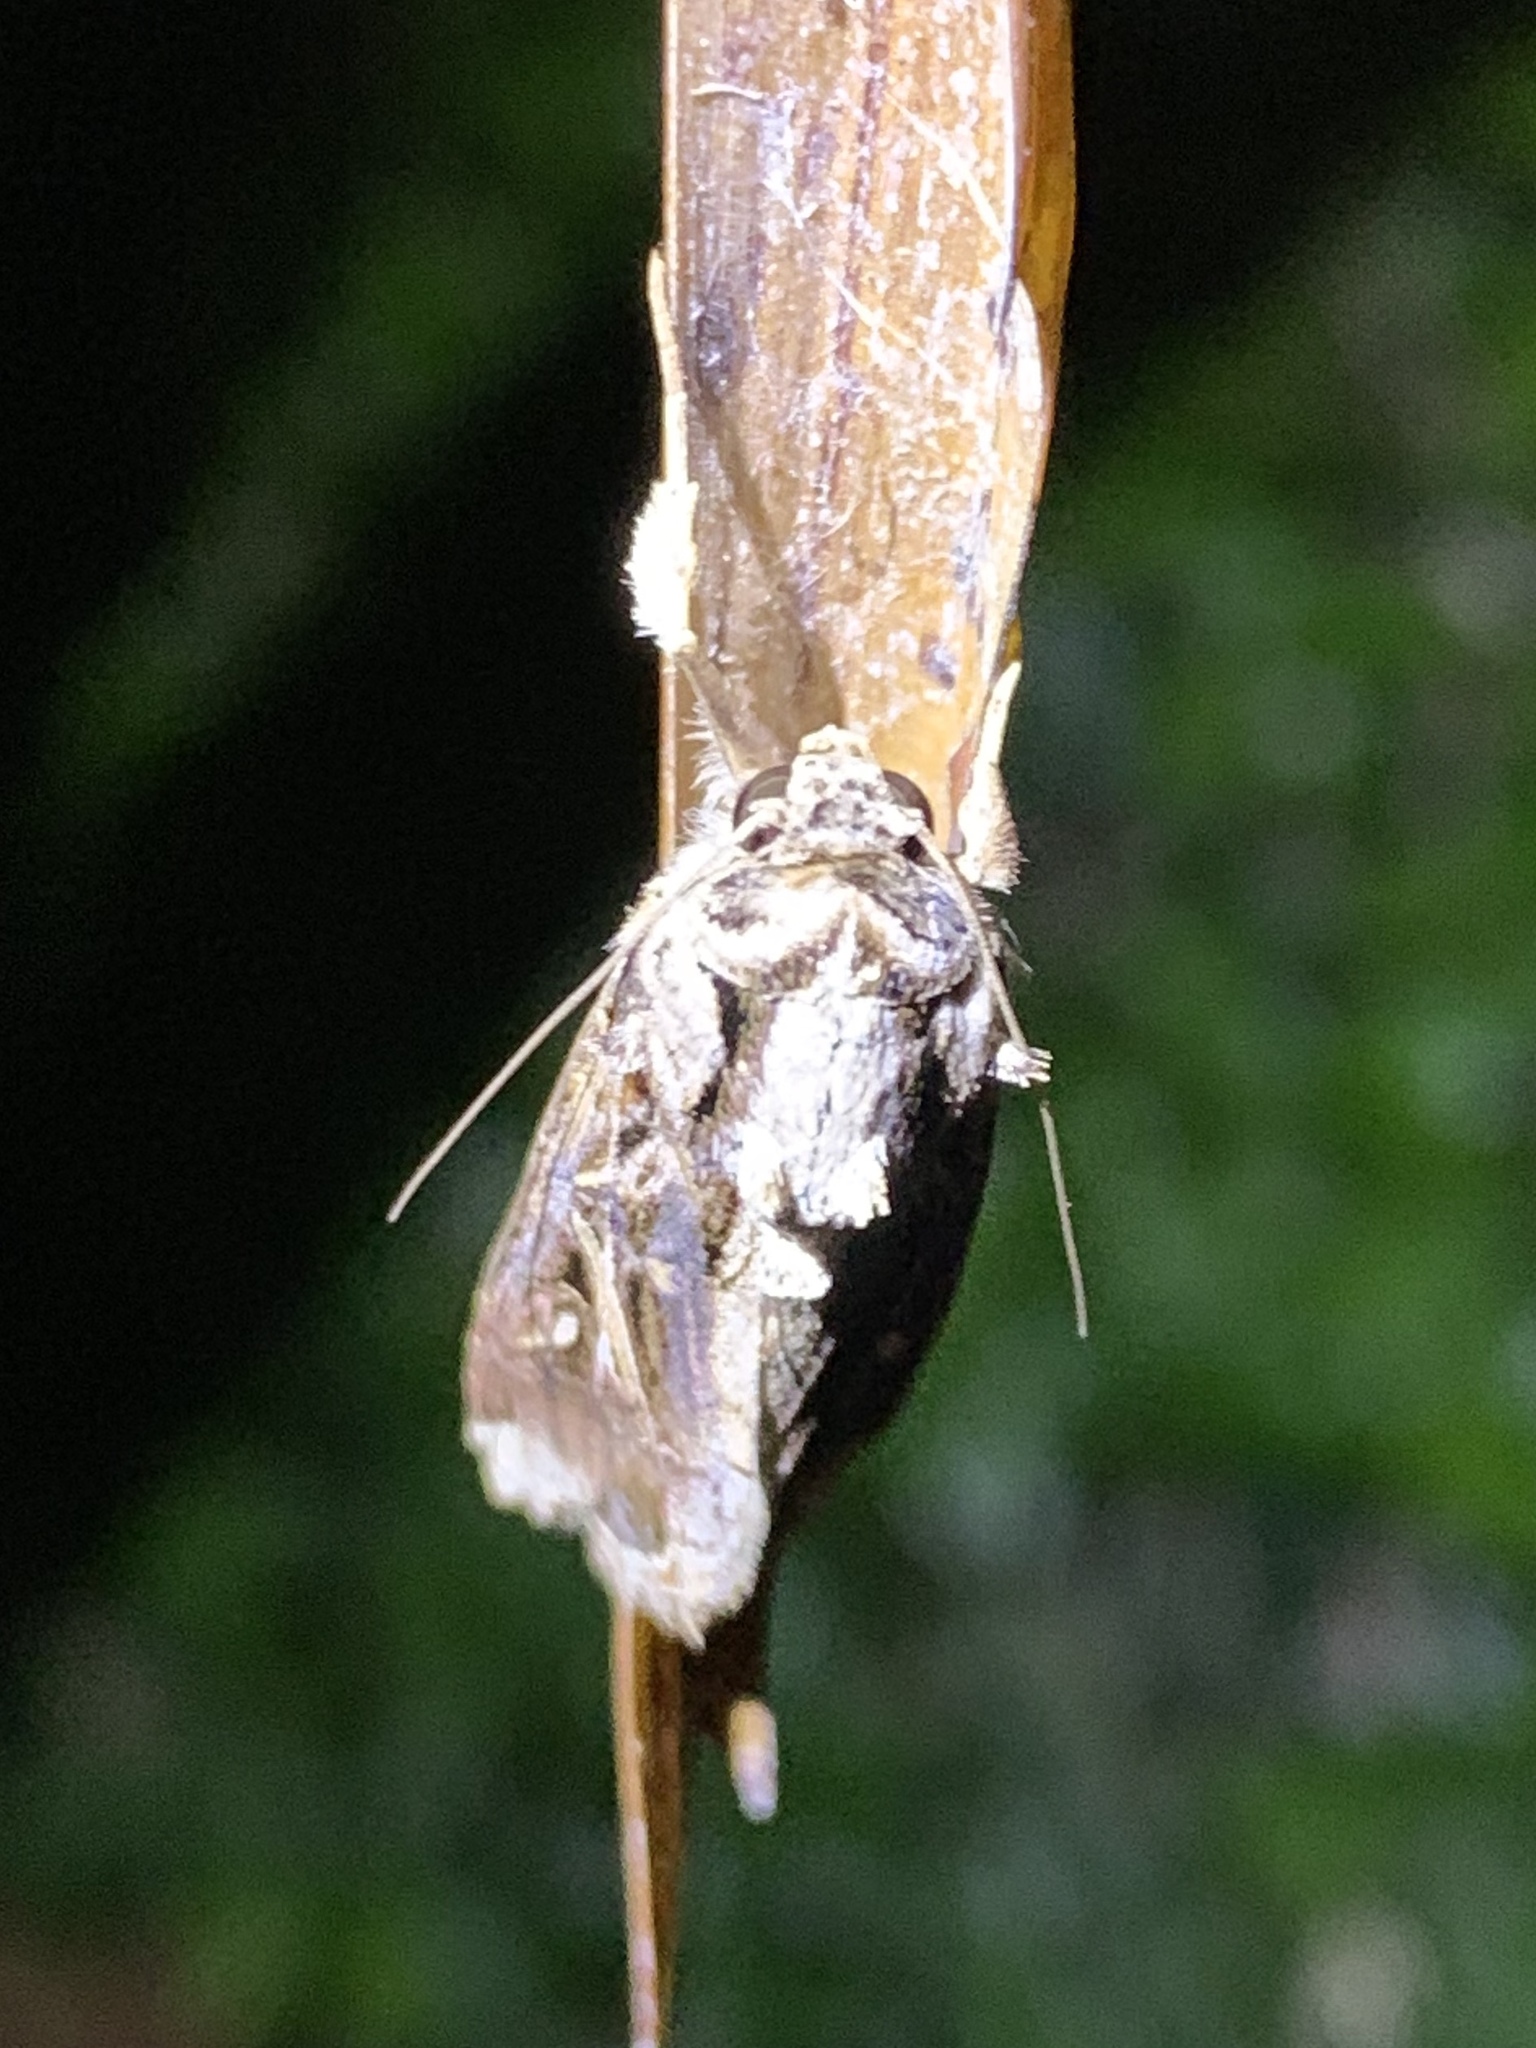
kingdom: Animalia
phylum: Arthropoda
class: Insecta
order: Lepidoptera
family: Noctuidae
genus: Spodoptera
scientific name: Spodoptera dolichos
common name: Sweetpotato armyworm
